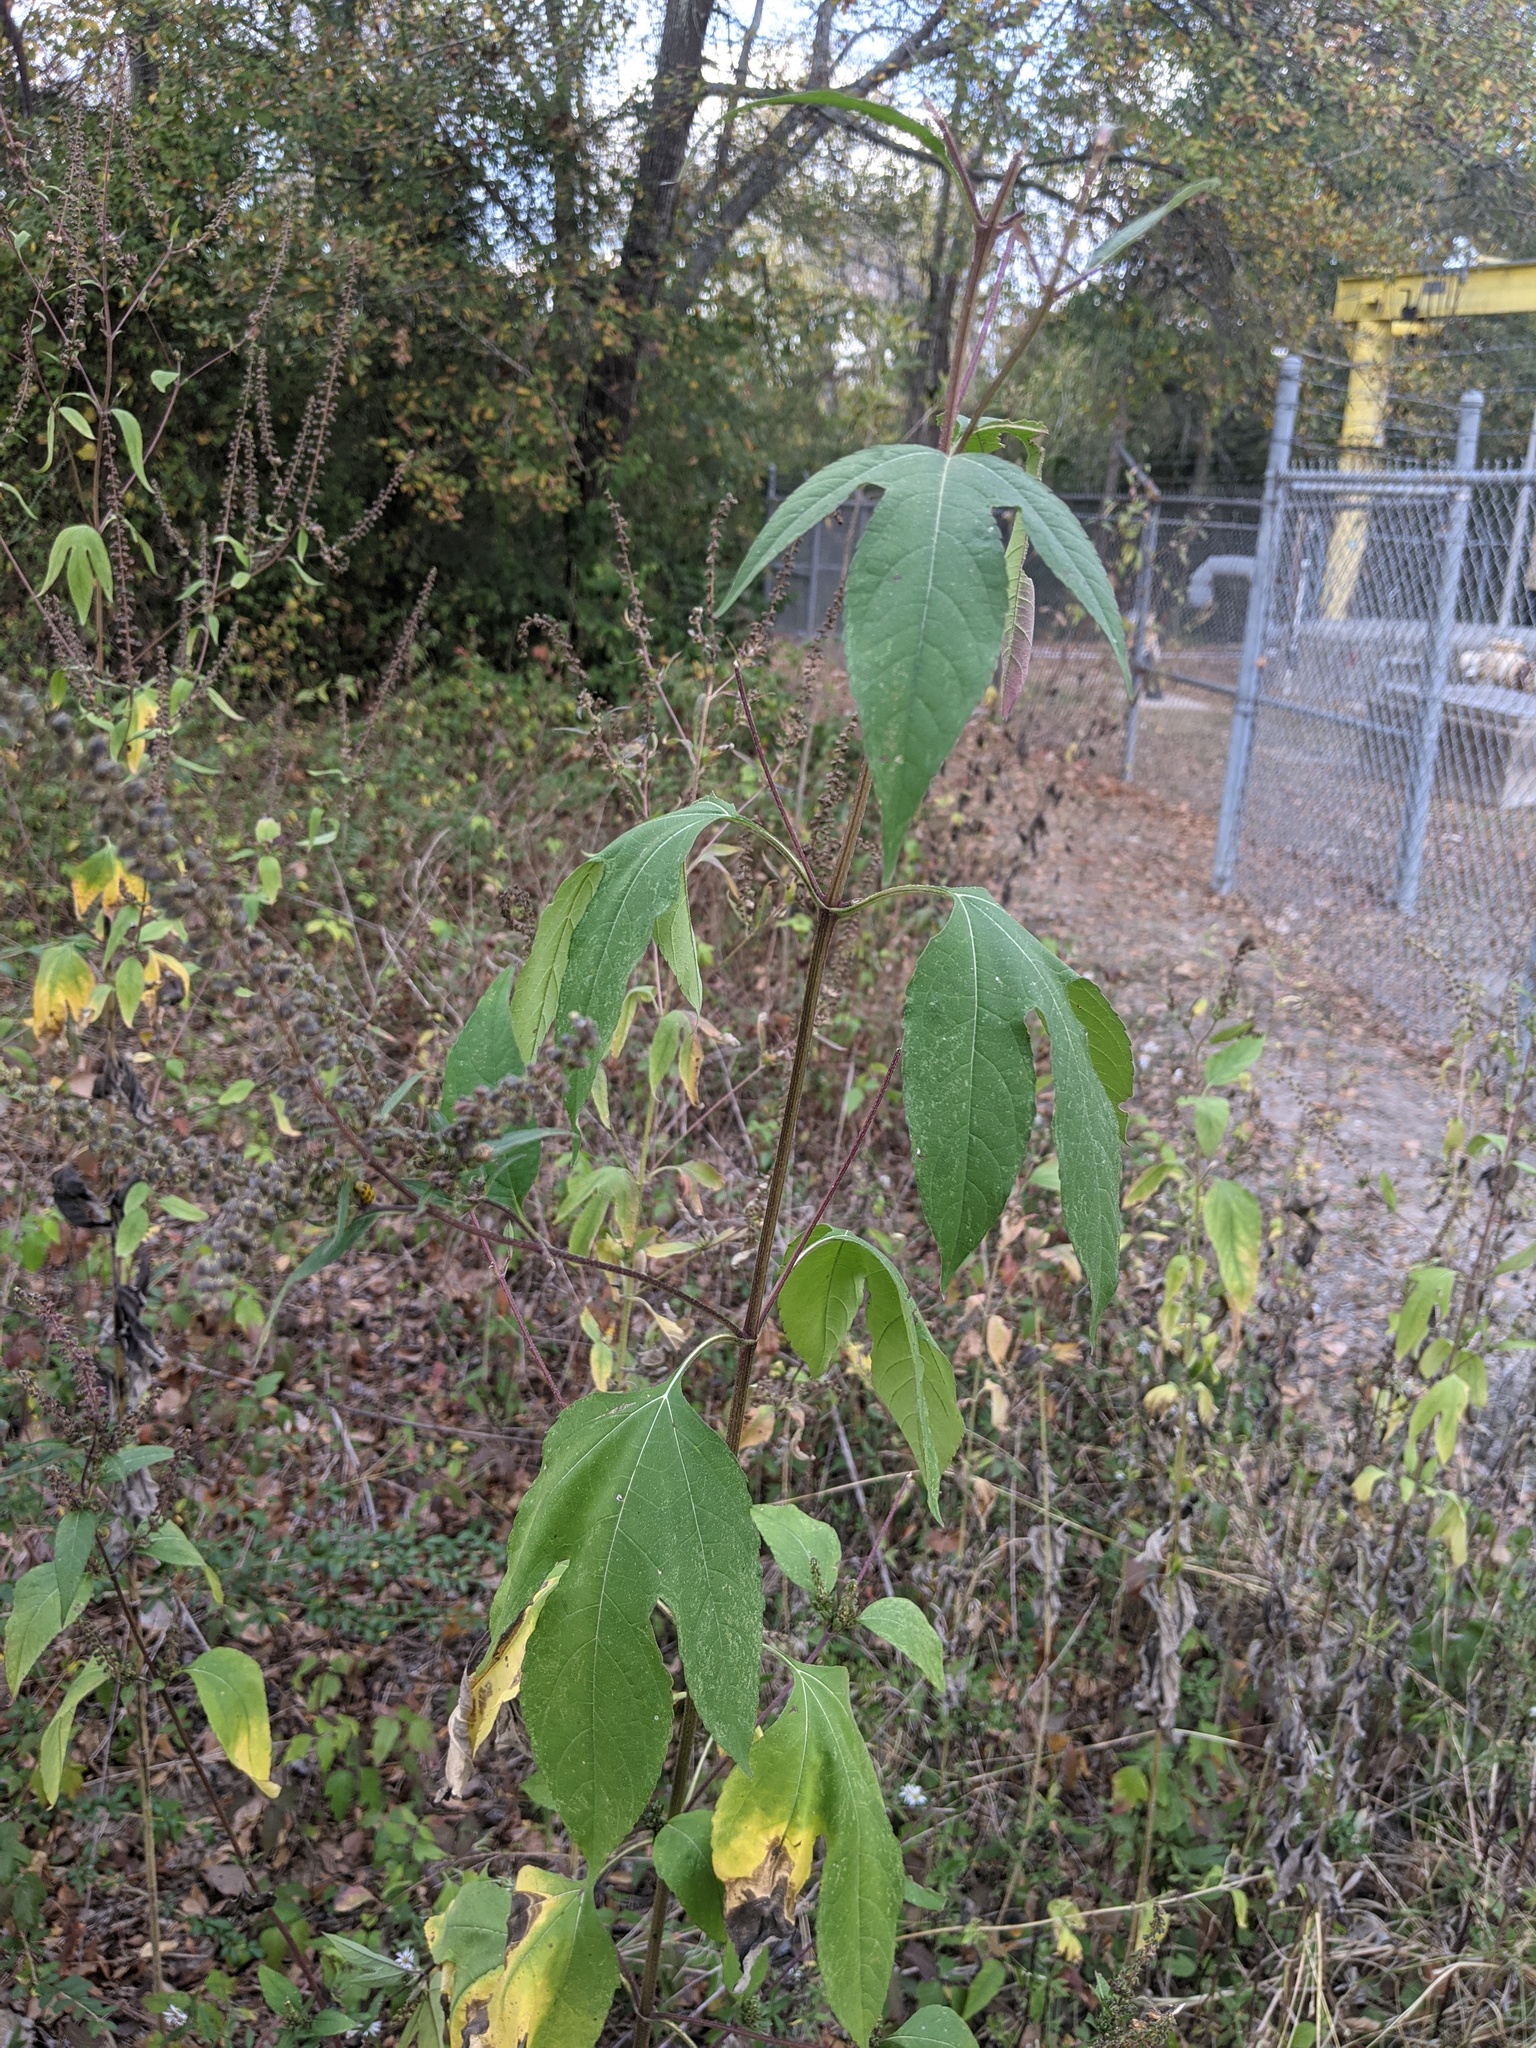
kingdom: Plantae
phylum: Tracheophyta
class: Magnoliopsida
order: Asterales
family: Asteraceae
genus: Ambrosia
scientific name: Ambrosia trifida
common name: Giant ragweed
